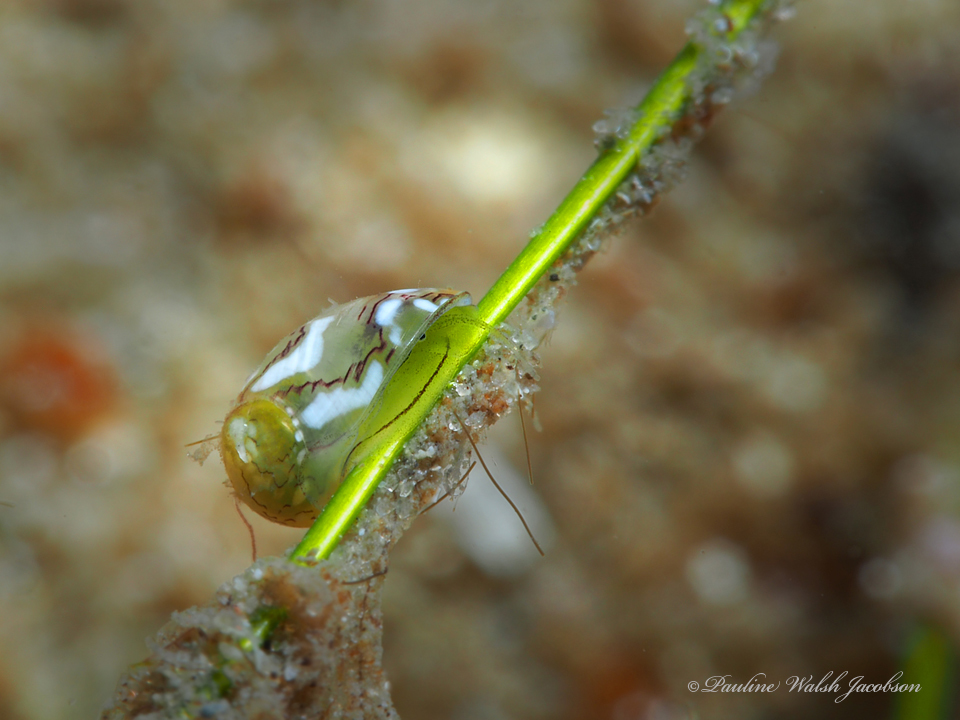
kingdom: Animalia
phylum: Mollusca
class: Gastropoda
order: Cycloneritida
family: Neritidae
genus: Smaragdia
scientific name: Smaragdia viridis
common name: Emerald nerite
